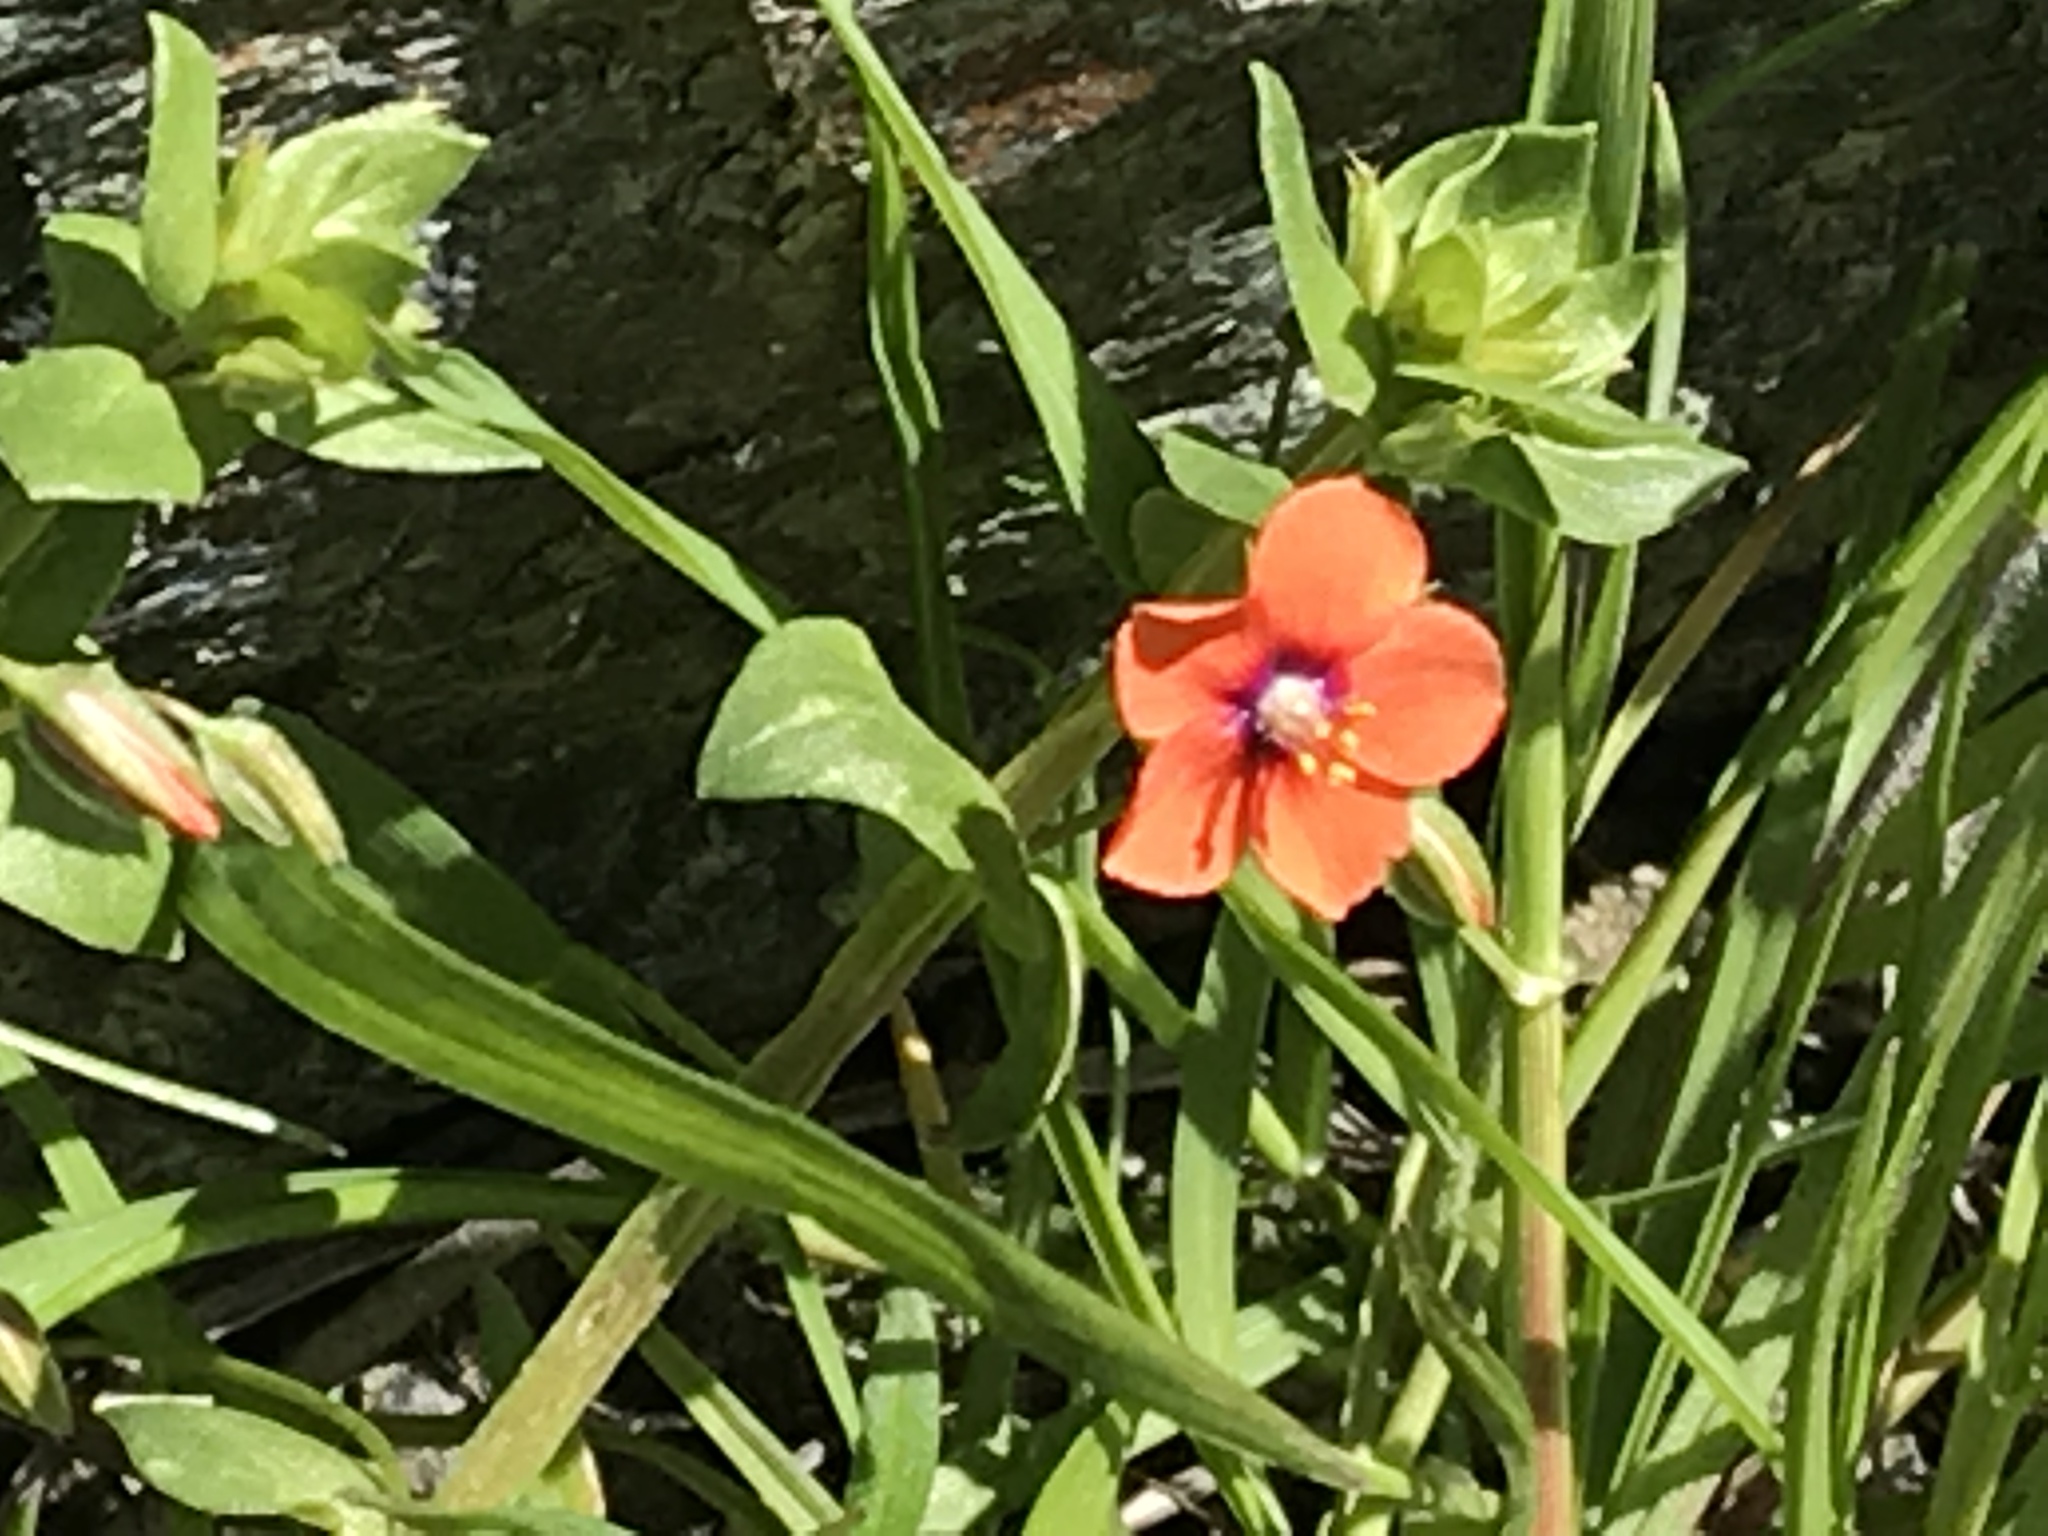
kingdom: Plantae
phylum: Tracheophyta
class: Magnoliopsida
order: Ericales
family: Primulaceae
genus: Lysimachia
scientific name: Lysimachia arvensis
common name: Scarlet pimpernel
